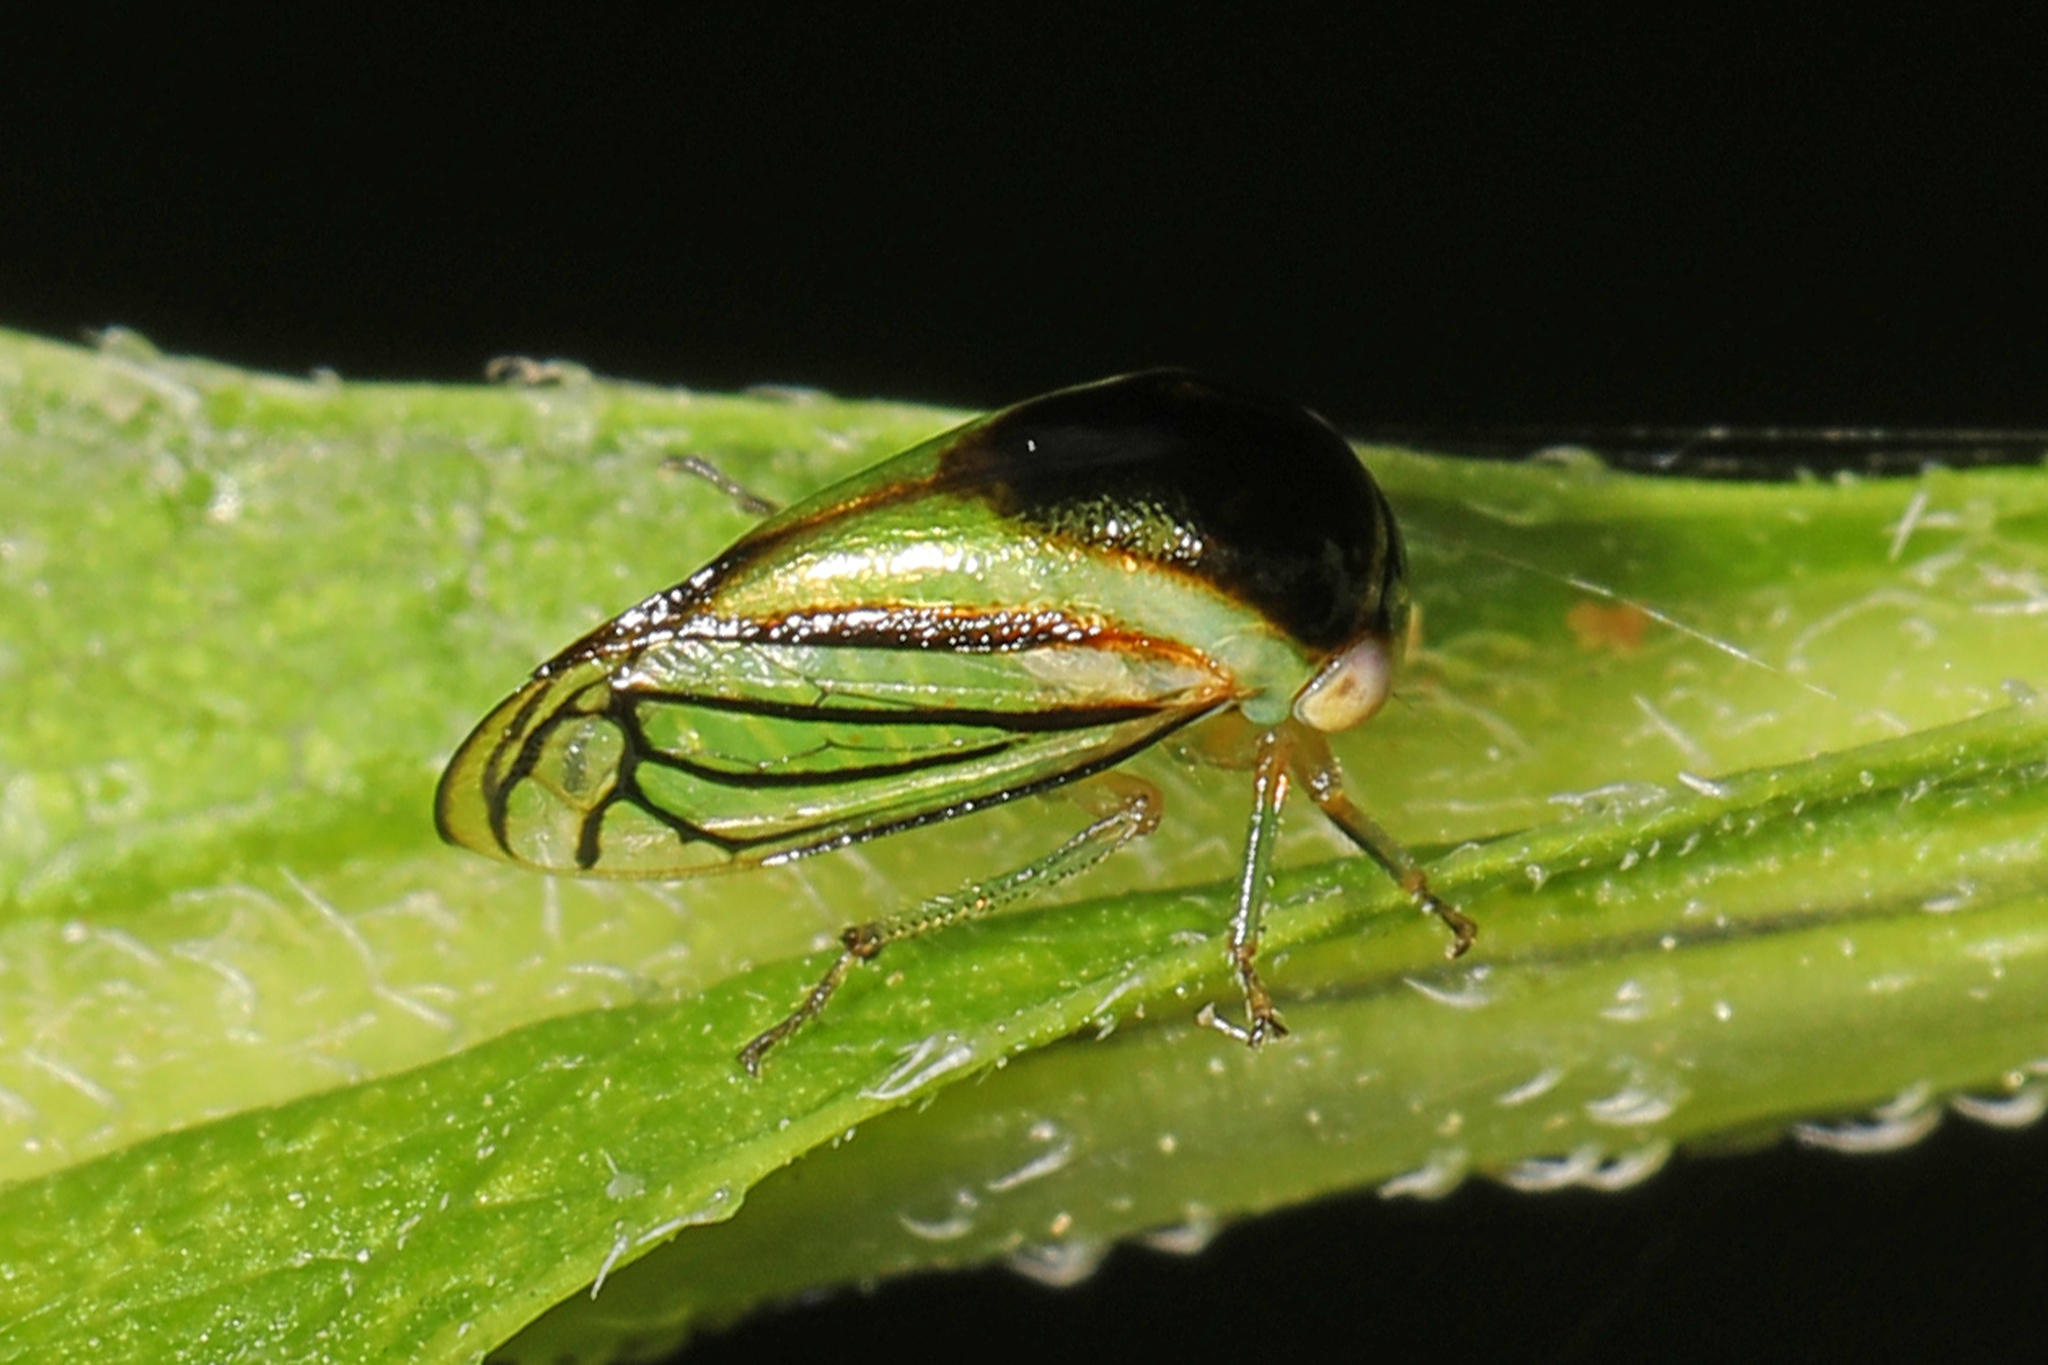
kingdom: Animalia
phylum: Arthropoda
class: Insecta
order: Hemiptera
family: Membracidae
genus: Acutalis
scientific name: Acutalis tartarea
